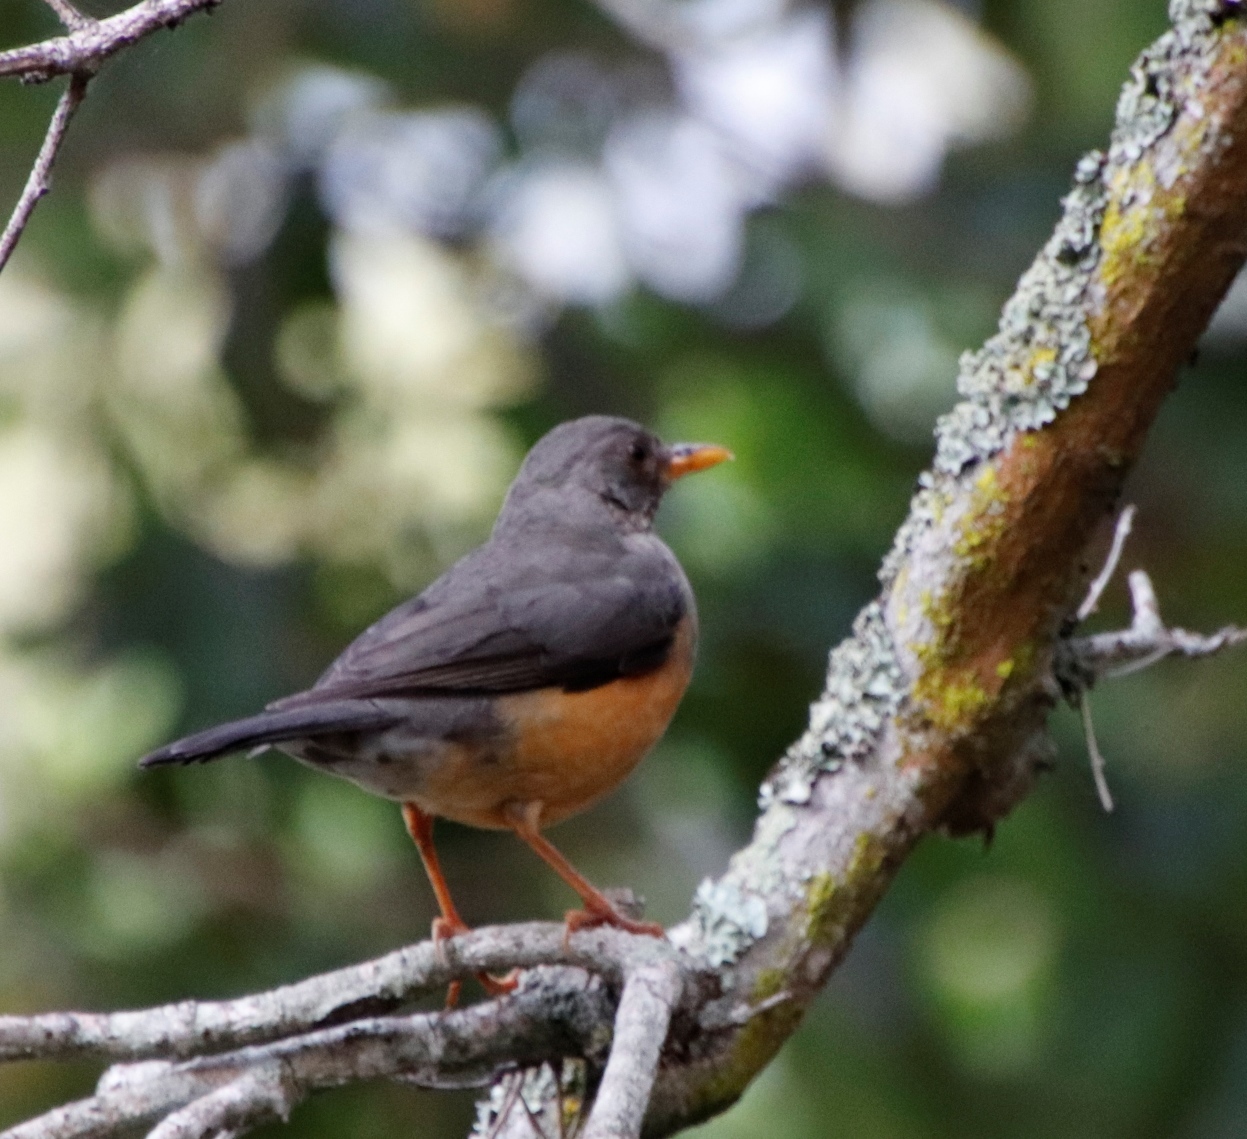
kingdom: Animalia
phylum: Chordata
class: Aves
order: Passeriformes
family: Turdidae
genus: Turdus
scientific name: Turdus olivaceus
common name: Olive thrush
